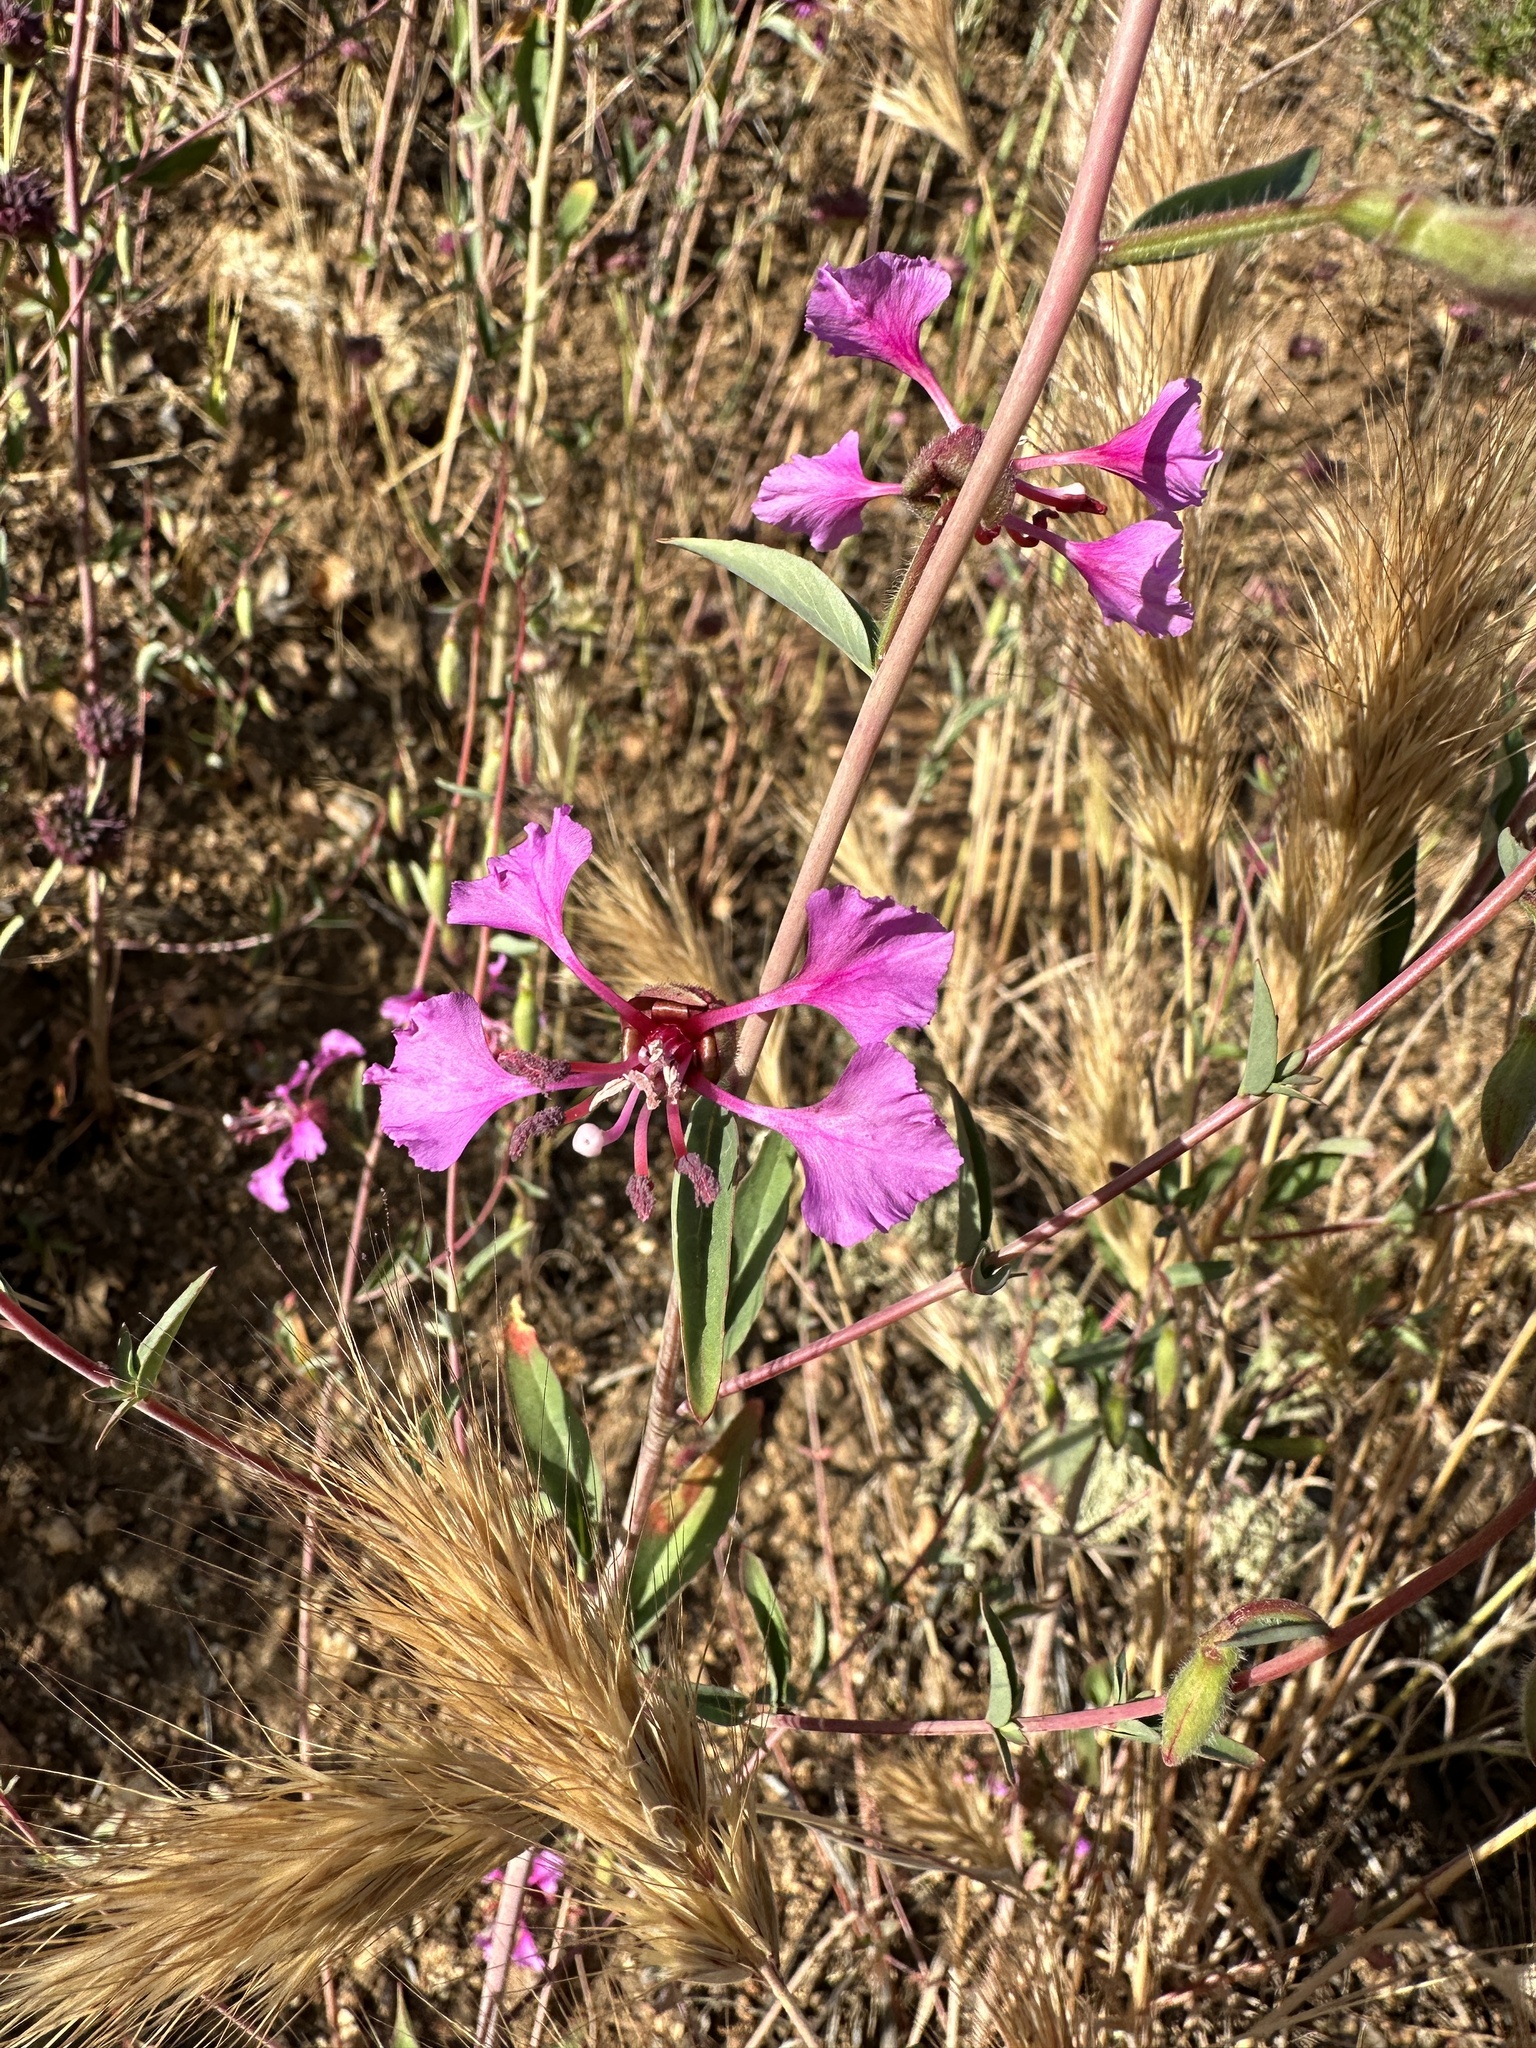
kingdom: Plantae
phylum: Tracheophyta
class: Magnoliopsida
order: Myrtales
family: Onagraceae
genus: Clarkia
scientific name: Clarkia unguiculata
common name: Clarkia
